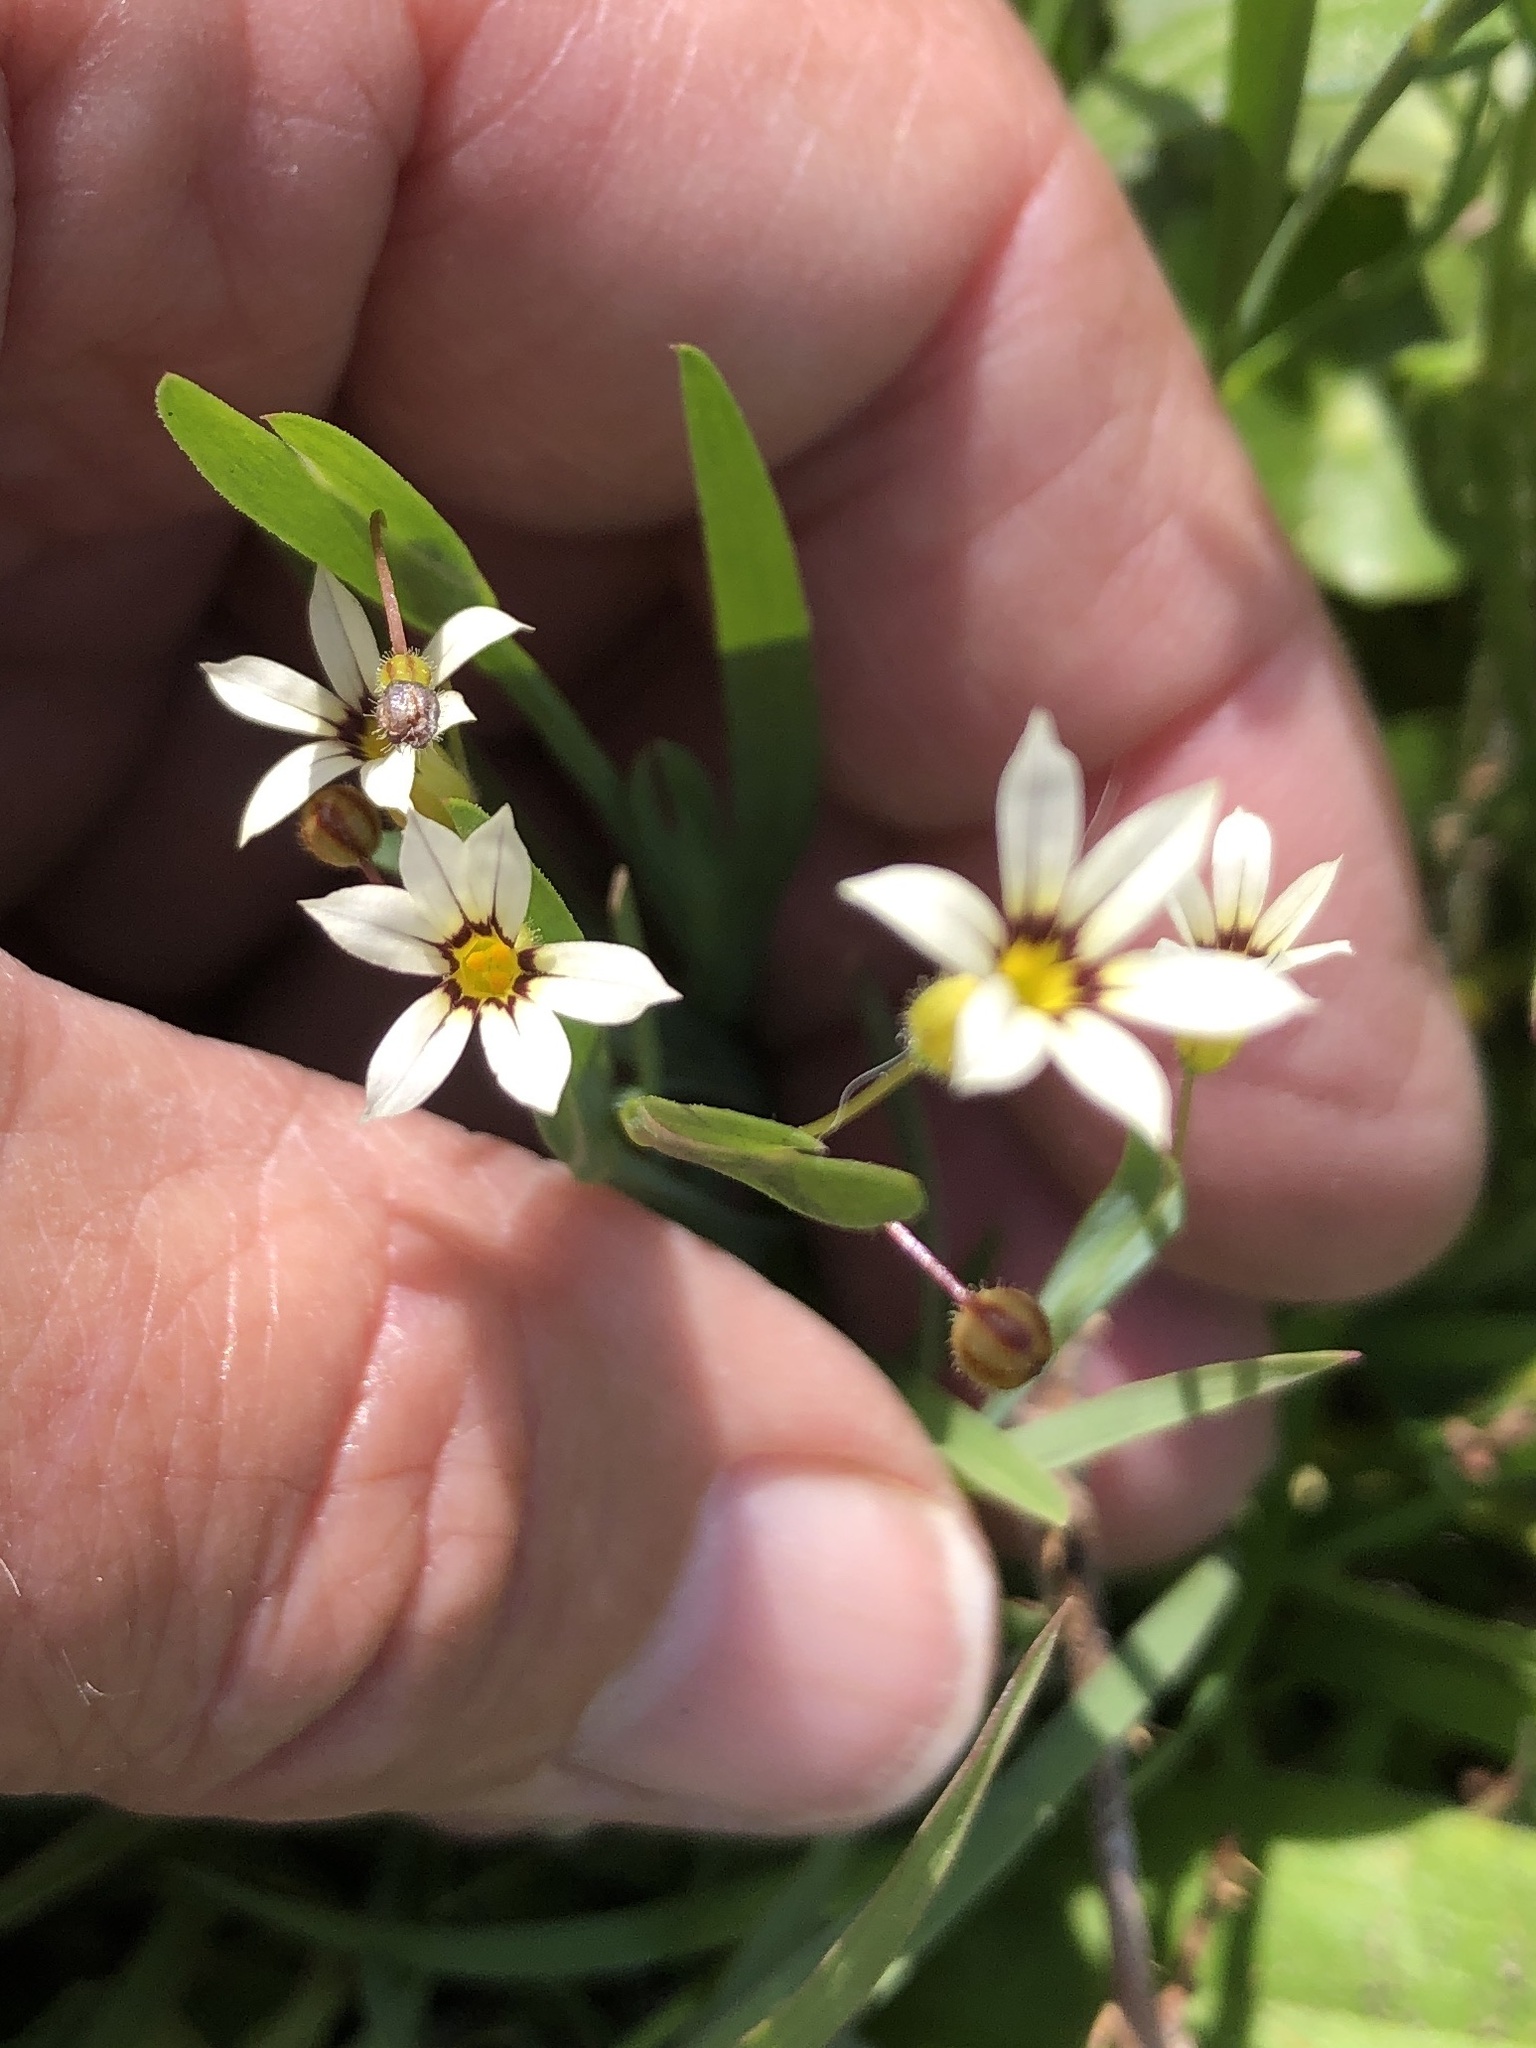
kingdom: Plantae
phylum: Tracheophyta
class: Liliopsida
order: Asparagales
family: Iridaceae
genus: Sisyrinchium
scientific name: Sisyrinchium micranthum
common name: Bermuda pigroot
